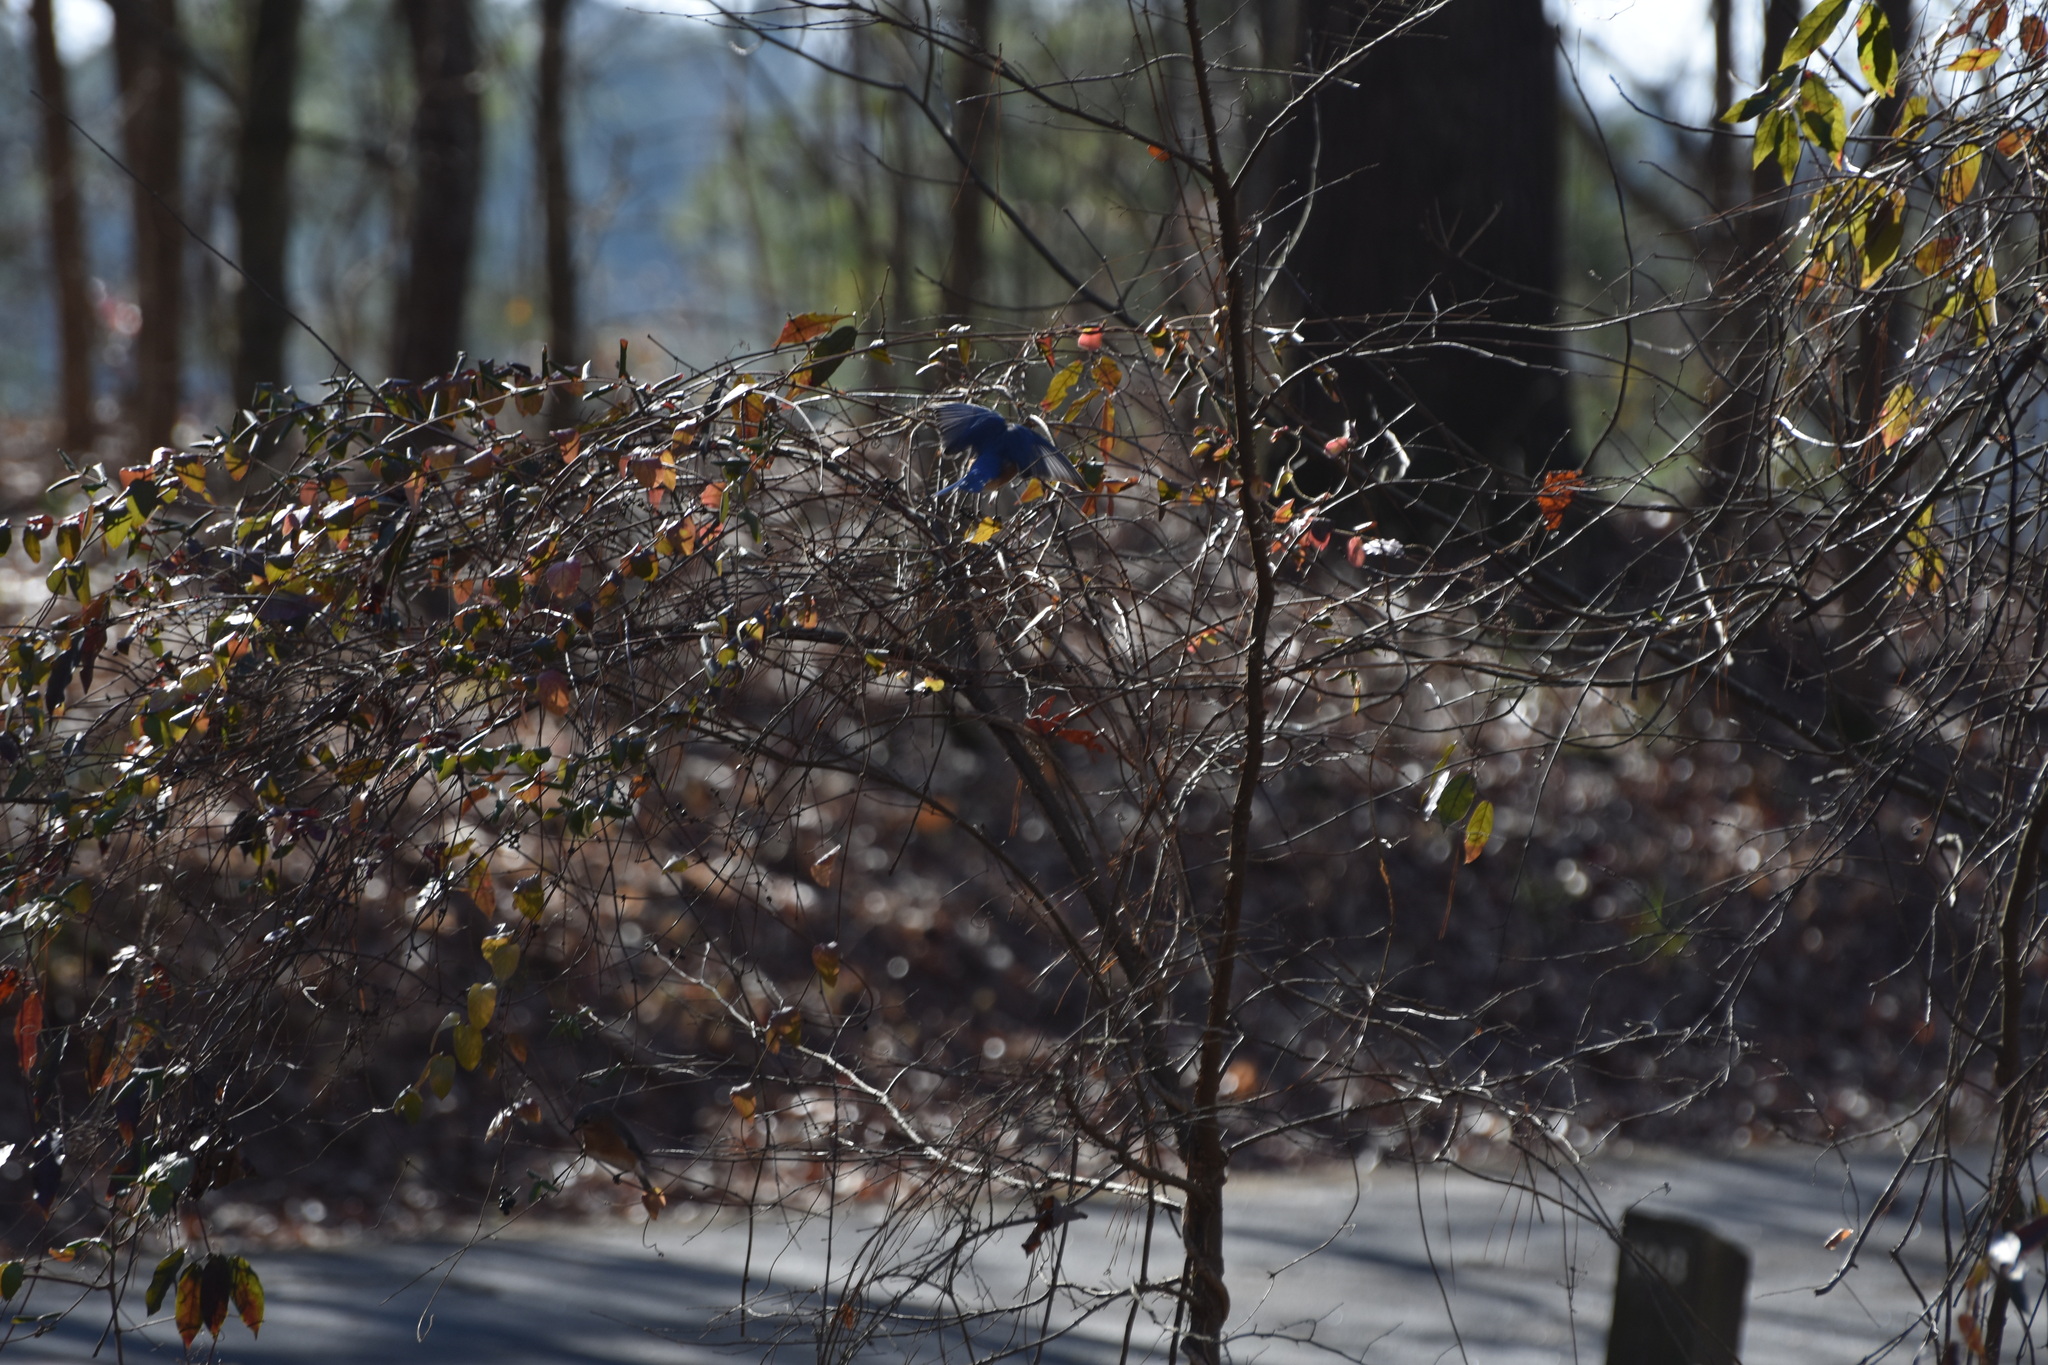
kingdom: Animalia
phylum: Chordata
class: Aves
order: Passeriformes
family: Turdidae
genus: Sialia
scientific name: Sialia sialis
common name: Eastern bluebird
